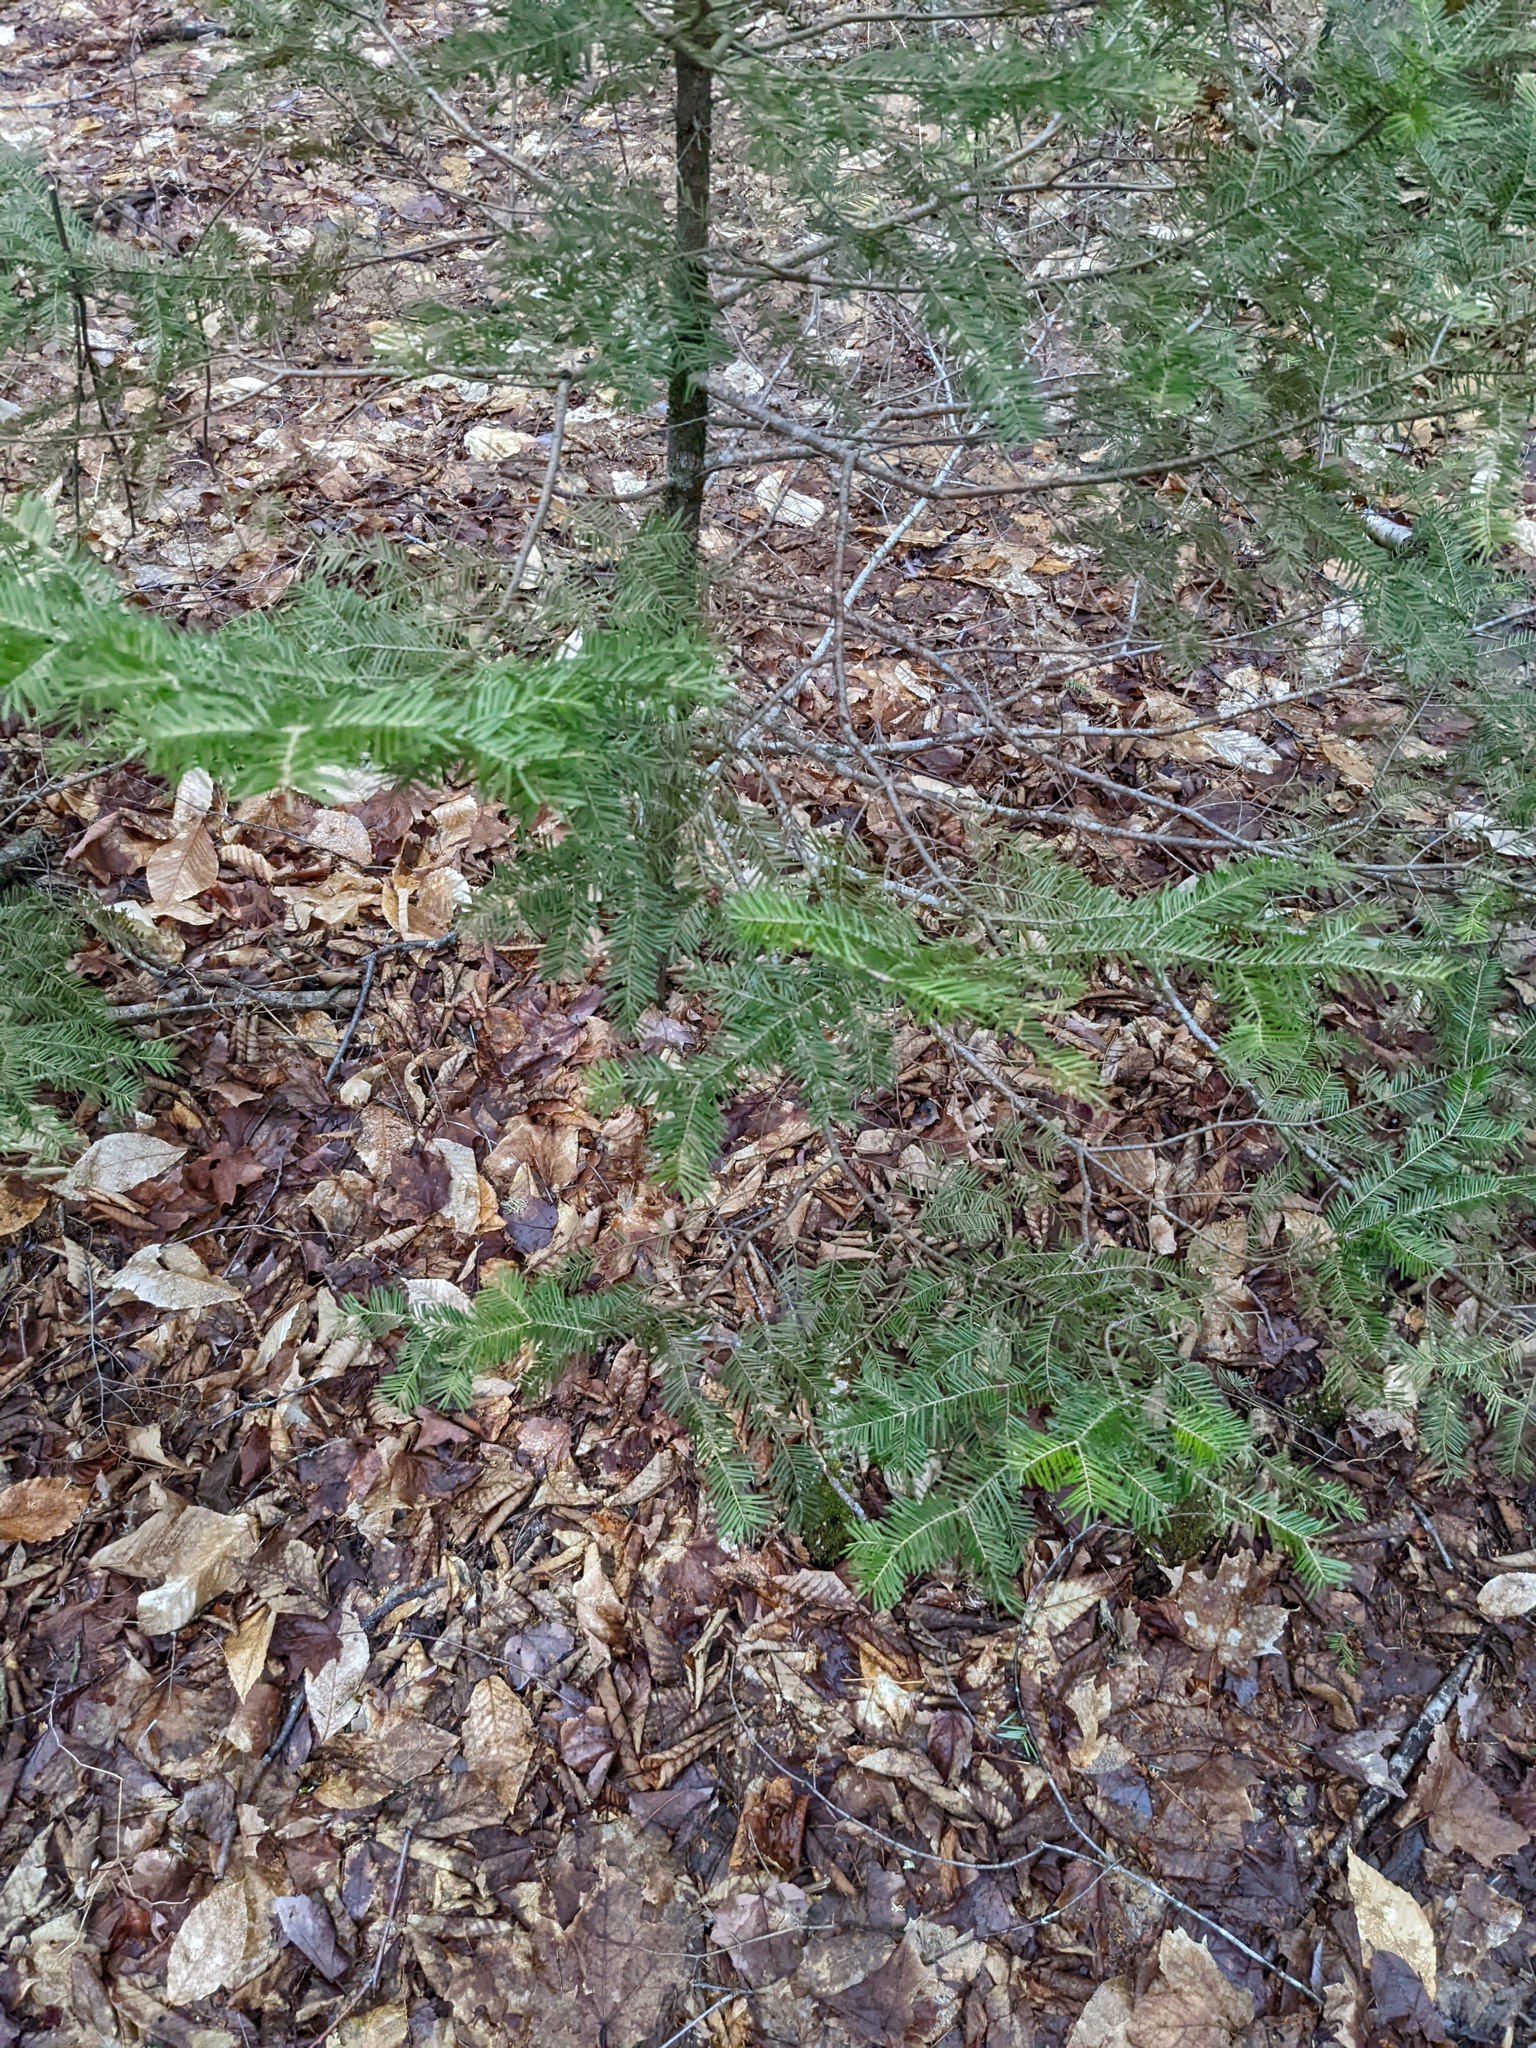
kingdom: Plantae
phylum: Tracheophyta
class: Pinopsida
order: Pinales
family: Pinaceae
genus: Abies
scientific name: Abies balsamea
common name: Balsam fir
